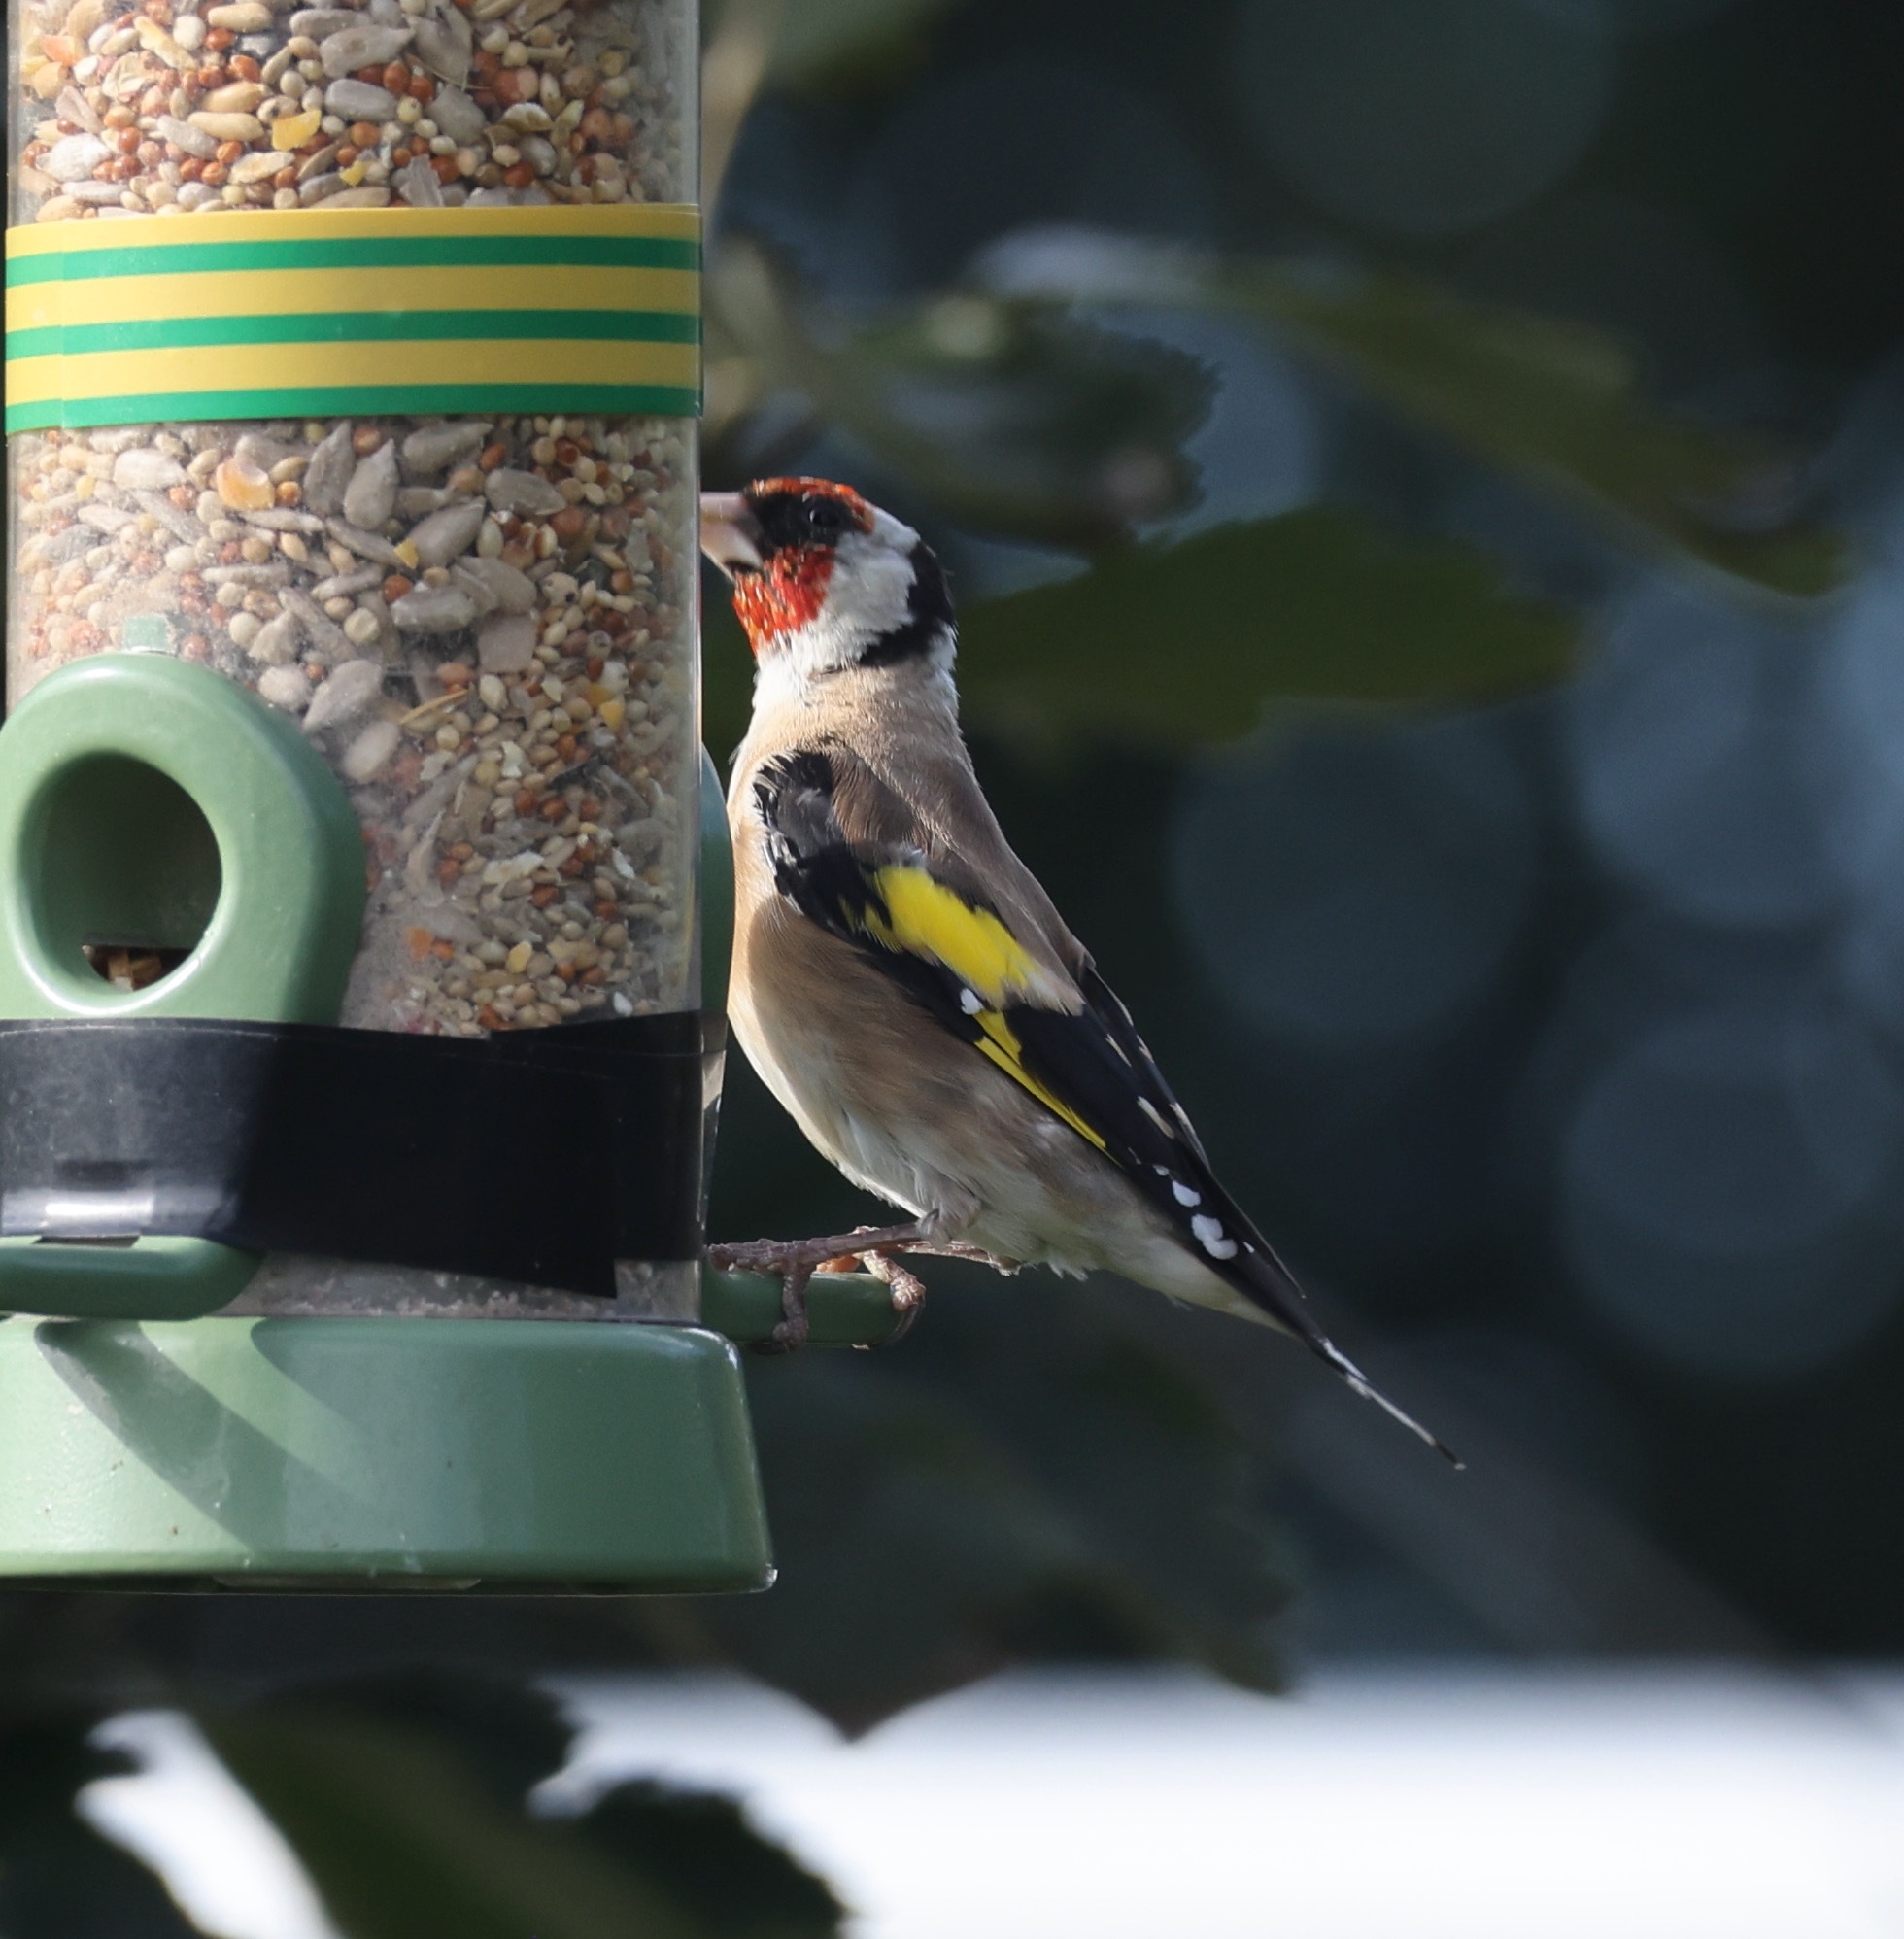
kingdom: Animalia
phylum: Chordata
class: Aves
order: Passeriformes
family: Fringillidae
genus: Carduelis
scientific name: Carduelis carduelis
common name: European goldfinch
